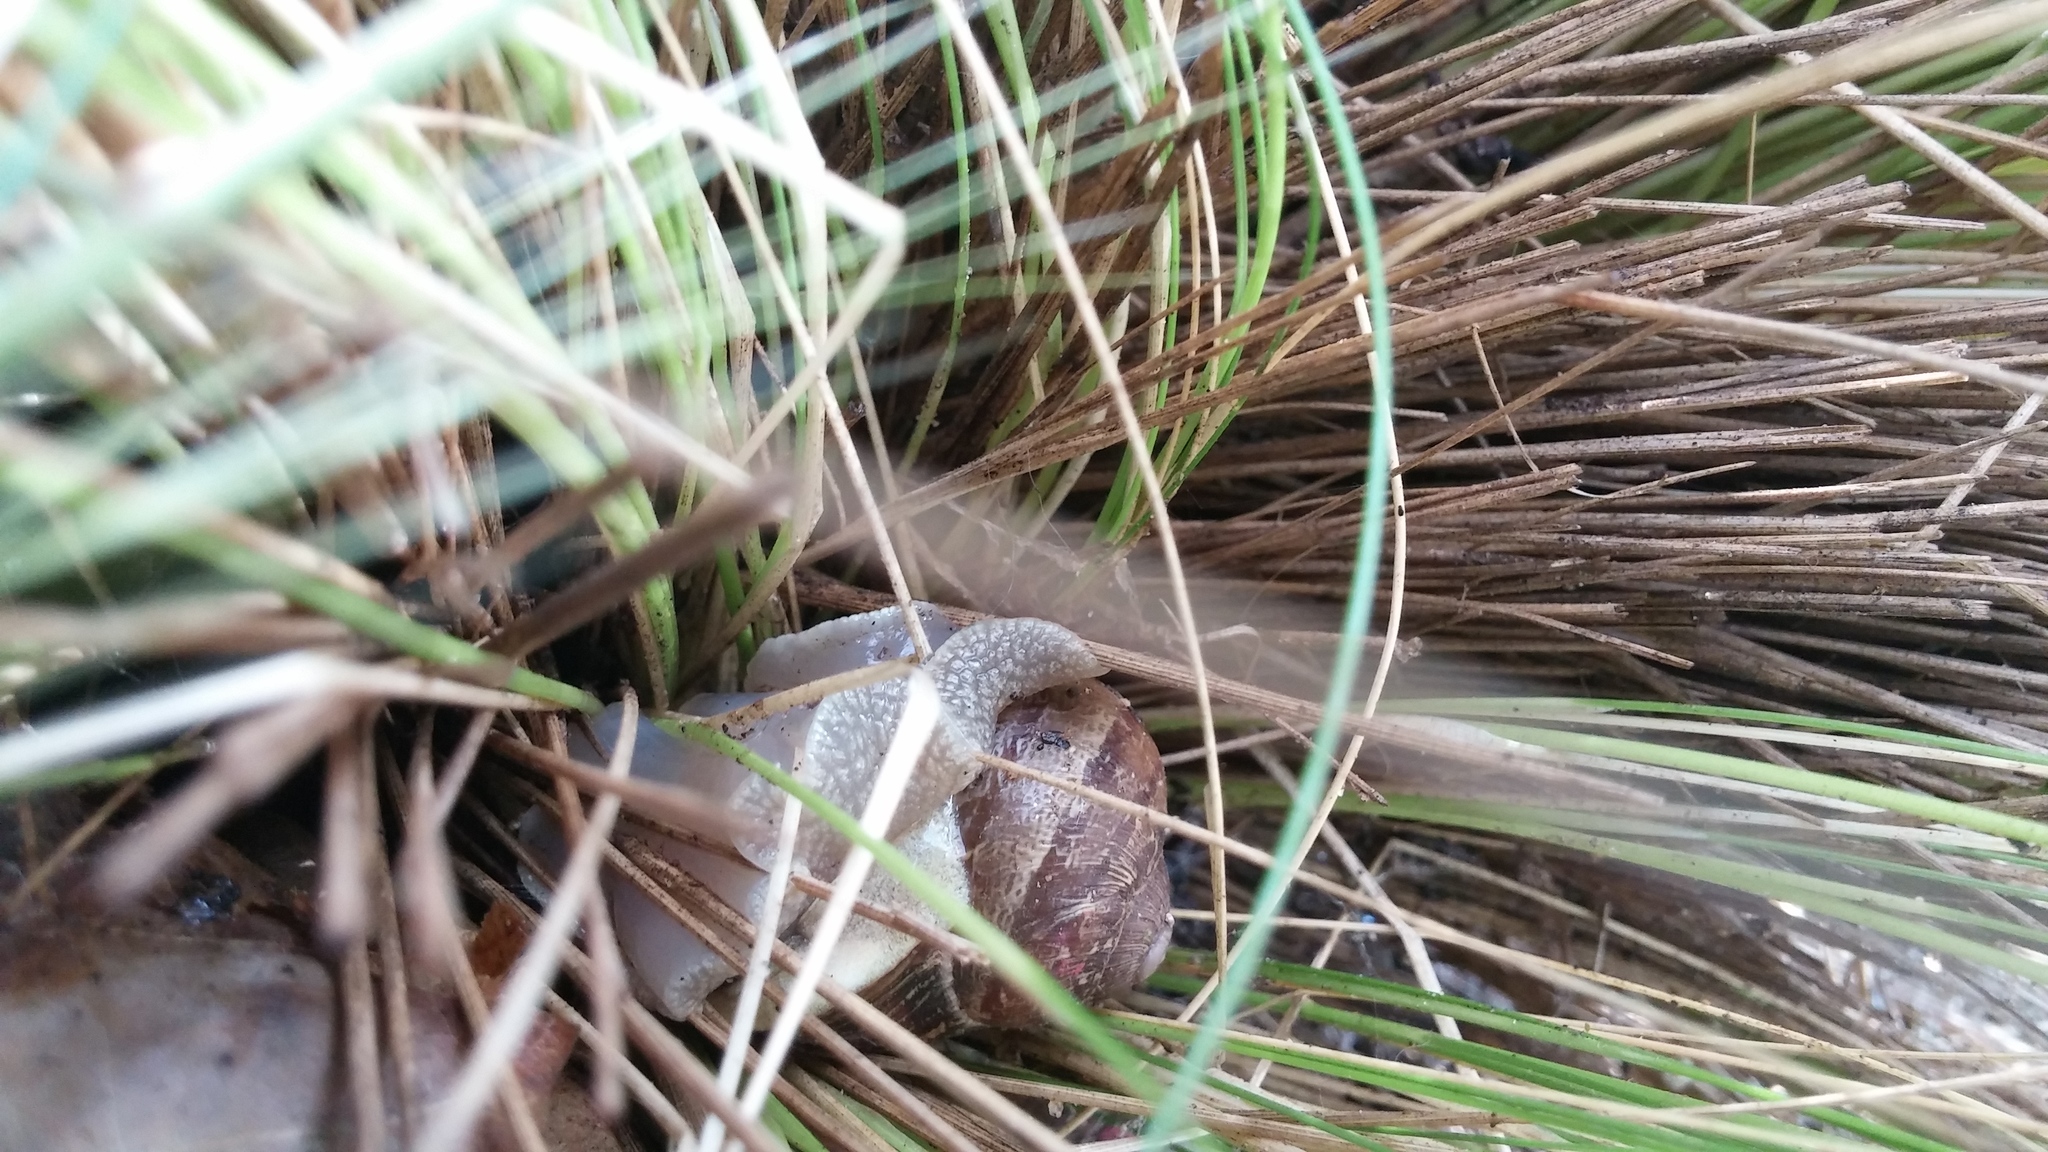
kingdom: Animalia
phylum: Mollusca
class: Gastropoda
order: Stylommatophora
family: Helicidae
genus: Cornu
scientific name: Cornu aspersum
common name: Brown garden snail
